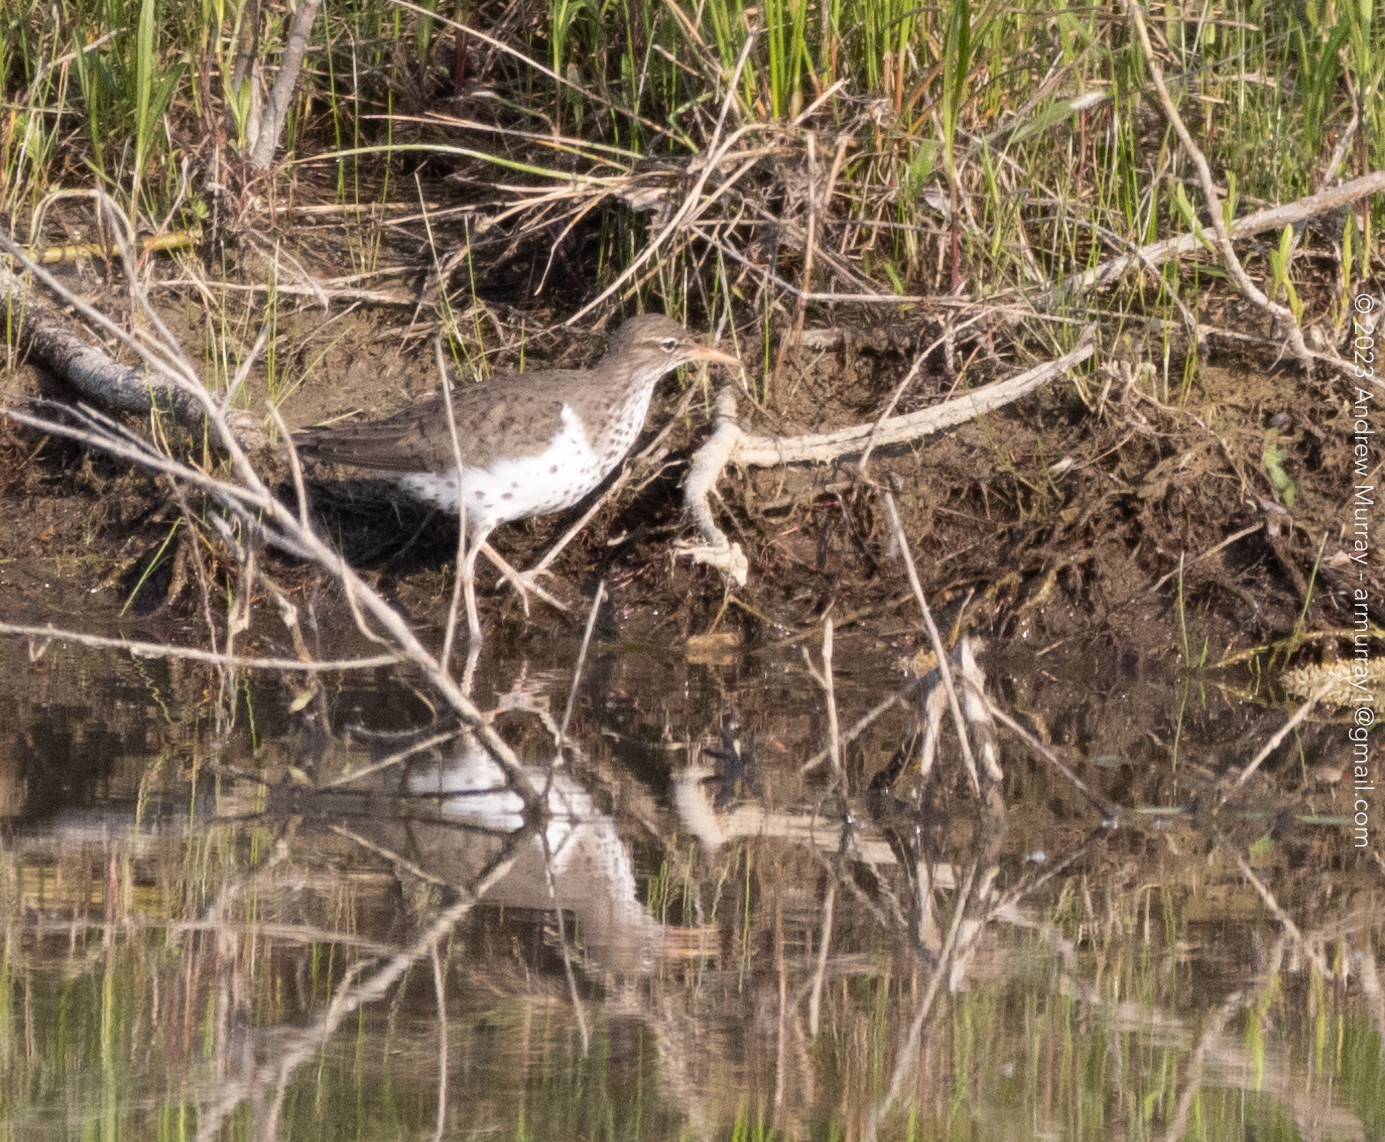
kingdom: Animalia
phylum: Chordata
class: Aves
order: Charadriiformes
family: Scolopacidae
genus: Actitis
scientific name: Actitis macularius
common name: Spotted sandpiper
